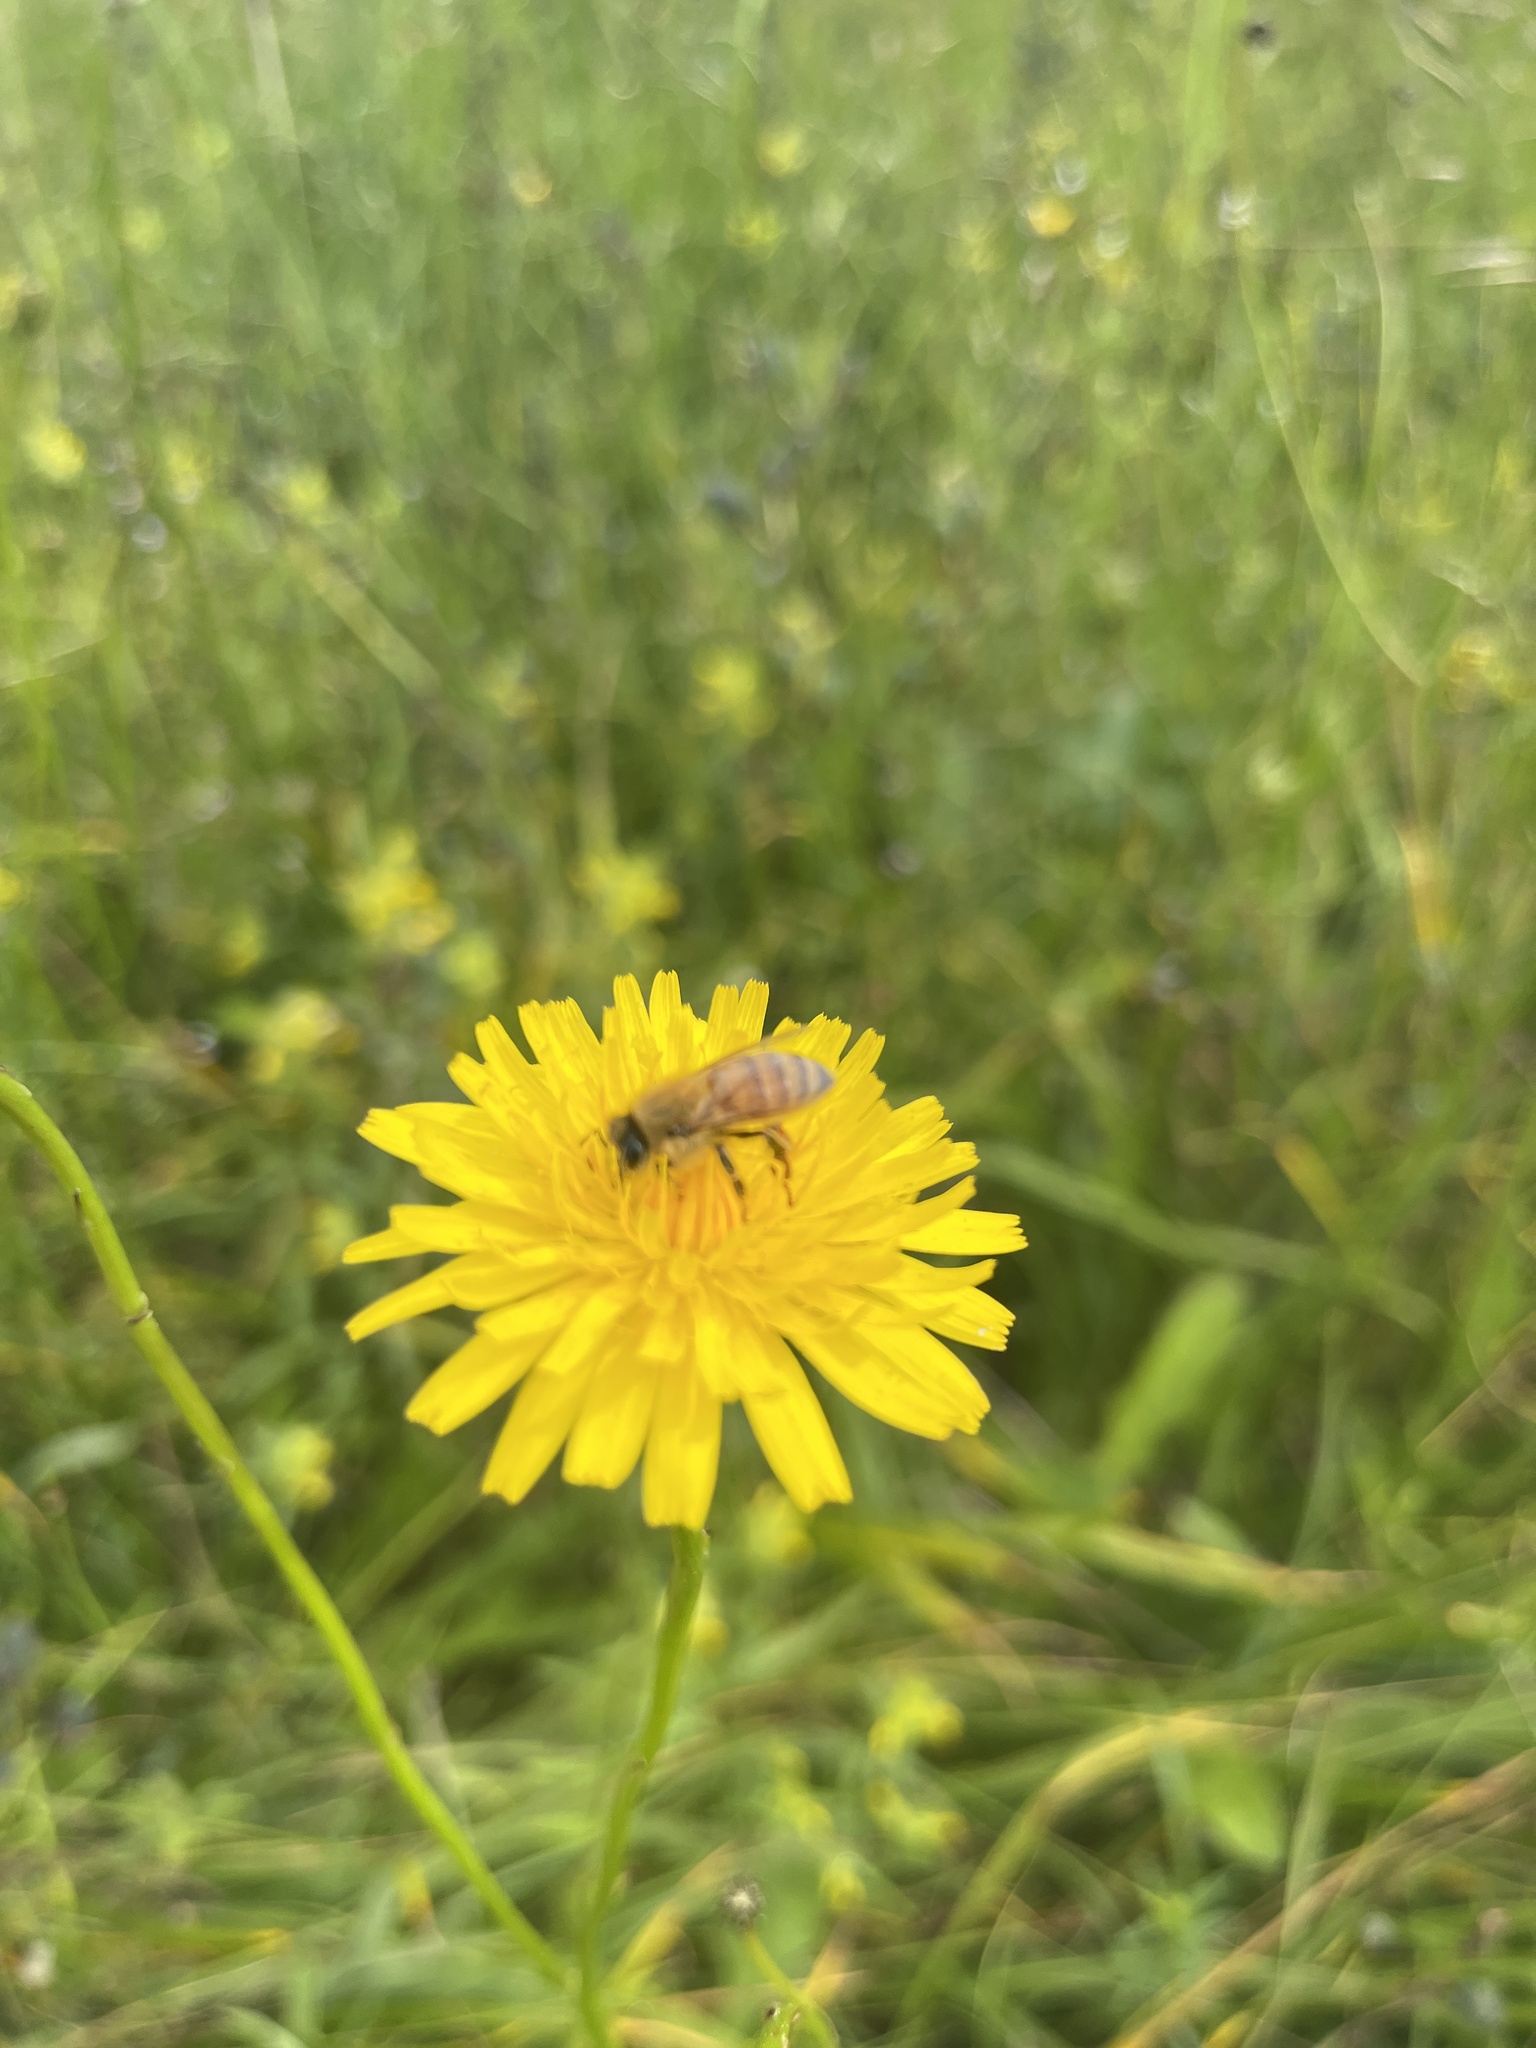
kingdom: Animalia
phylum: Arthropoda
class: Insecta
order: Hymenoptera
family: Apidae
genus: Apis
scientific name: Apis mellifera
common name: Honey bee
